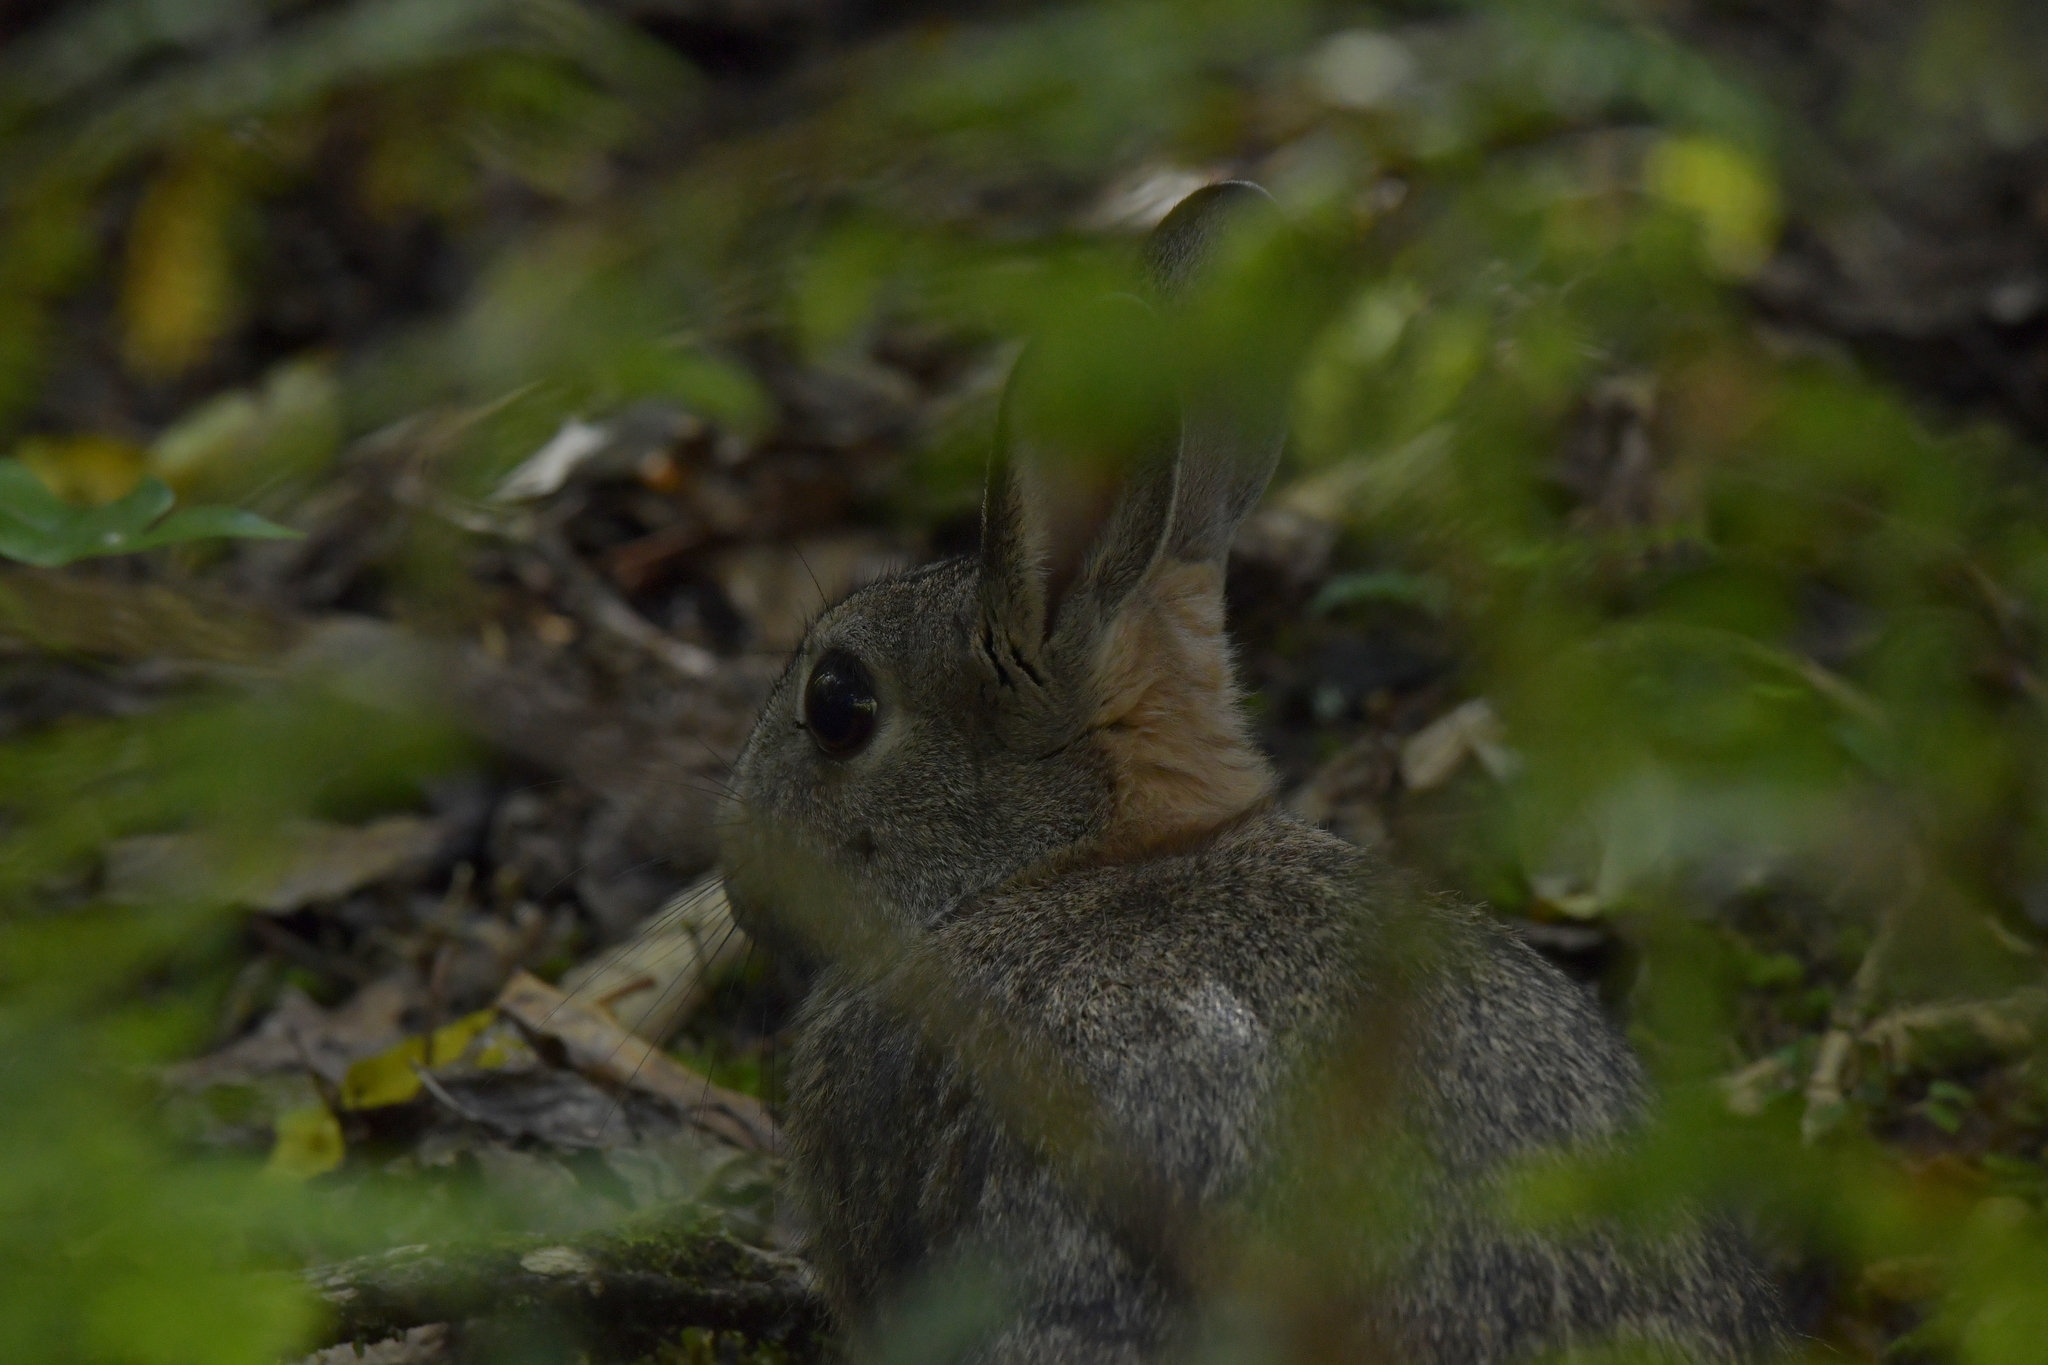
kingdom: Animalia
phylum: Chordata
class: Mammalia
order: Lagomorpha
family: Leporidae
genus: Oryctolagus
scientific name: Oryctolagus cuniculus
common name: European rabbit
